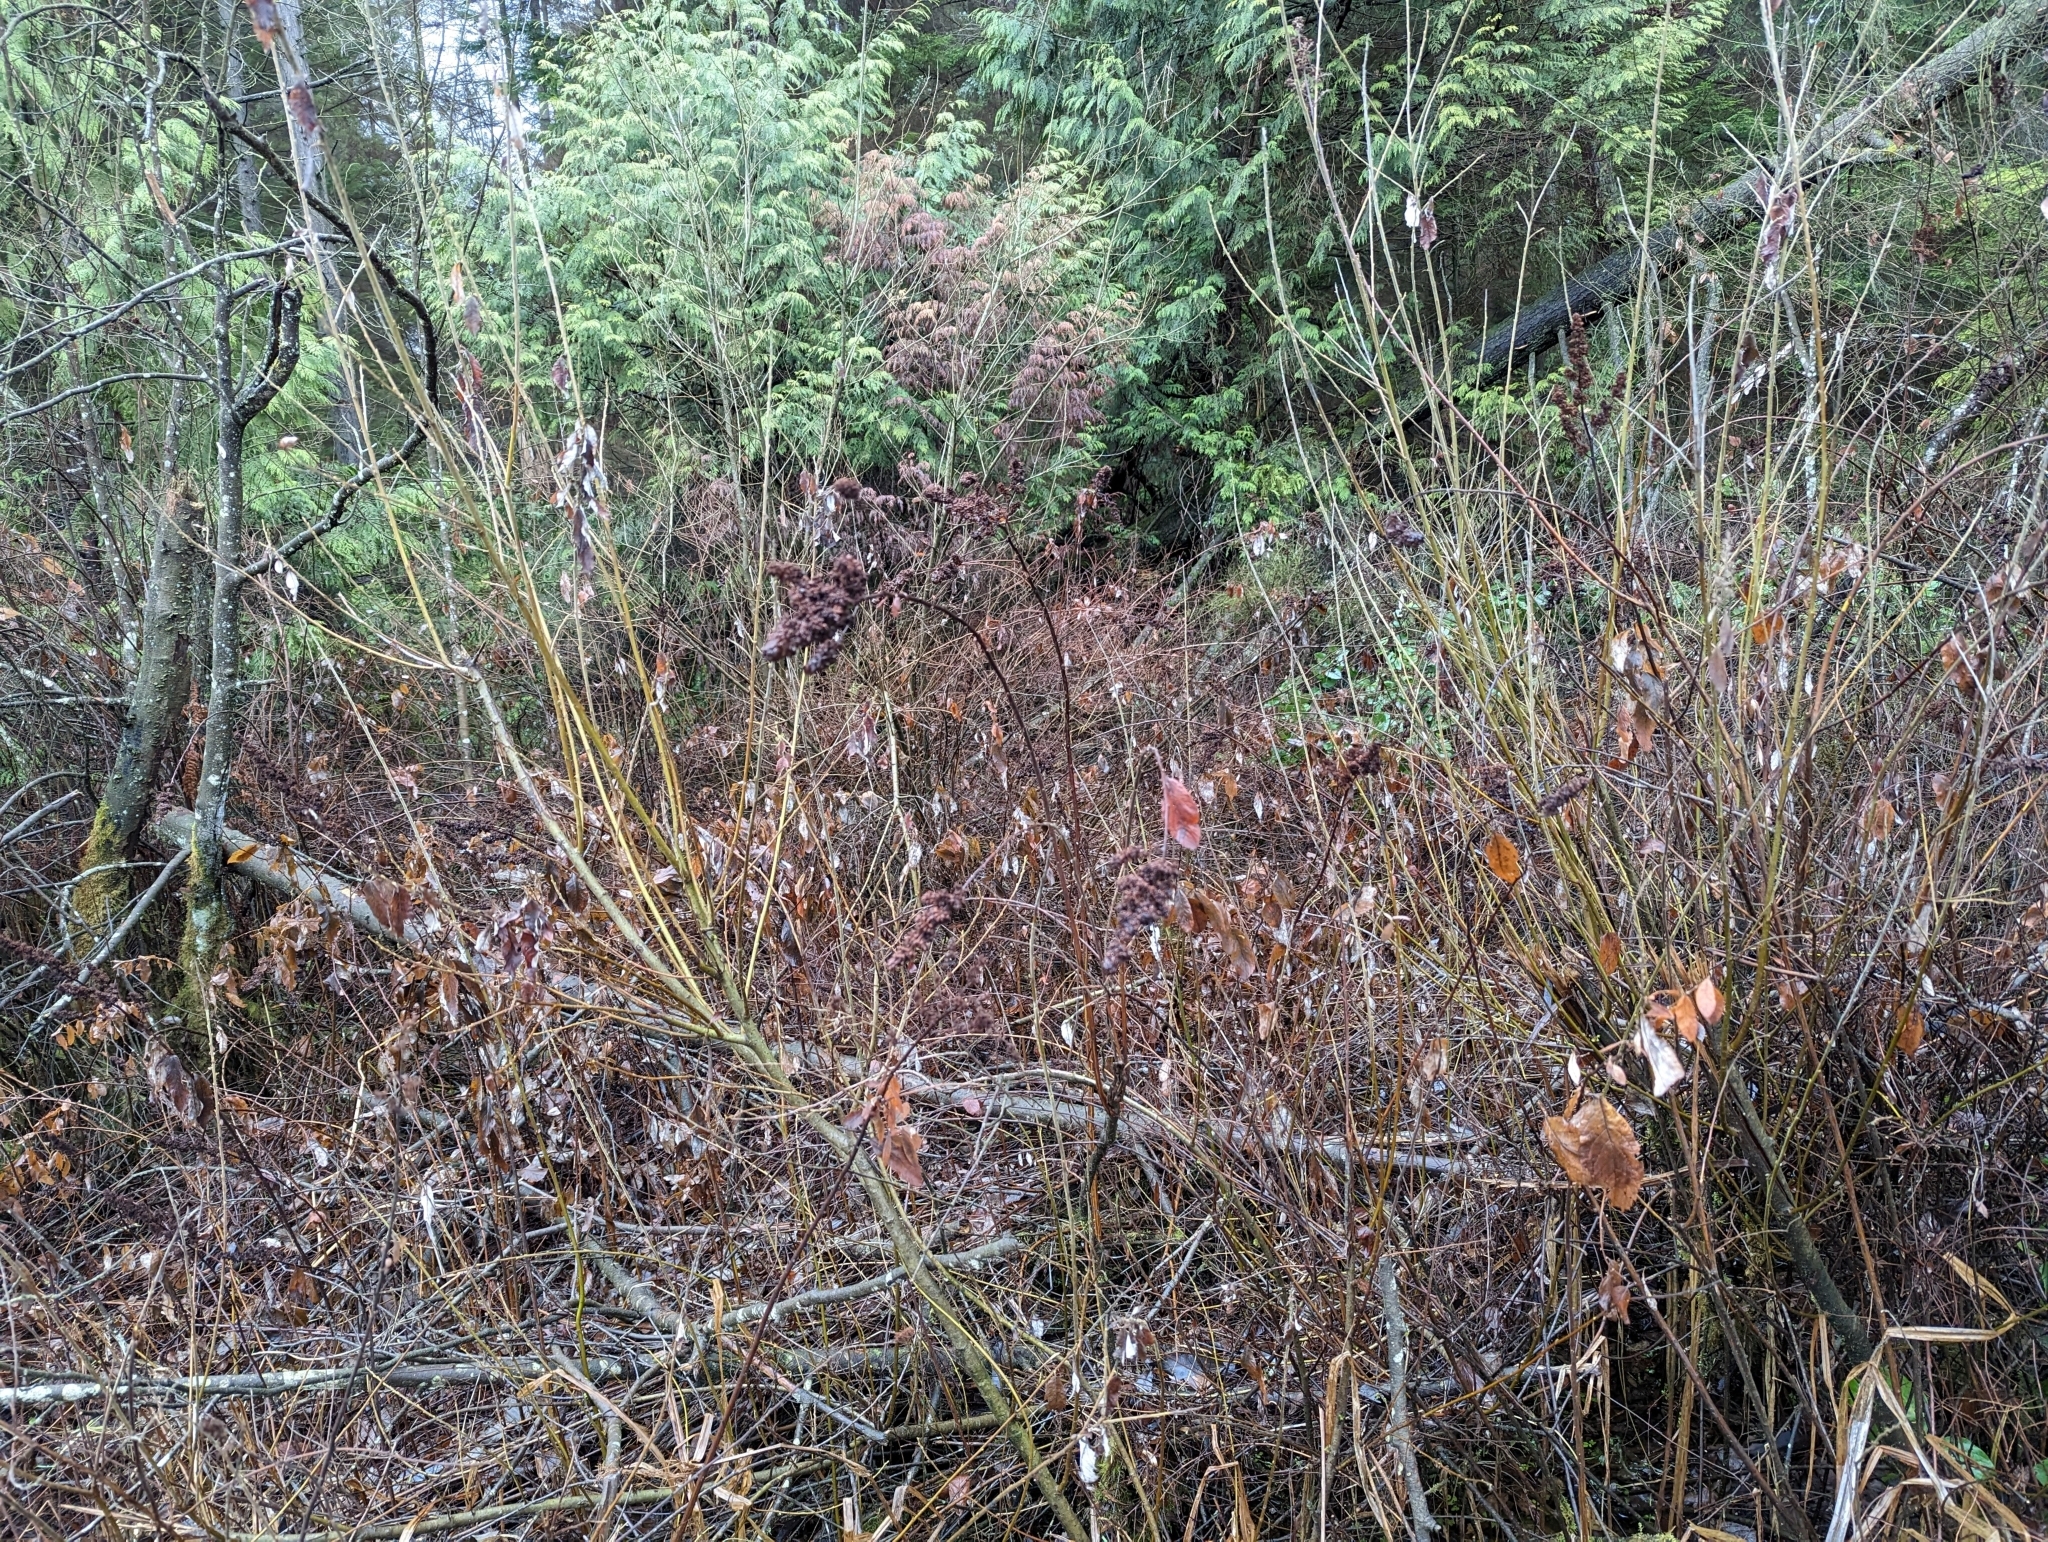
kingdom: Plantae
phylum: Tracheophyta
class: Magnoliopsida
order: Rosales
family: Rosaceae
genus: Spiraea
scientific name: Spiraea douglasii
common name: Steeplebush
